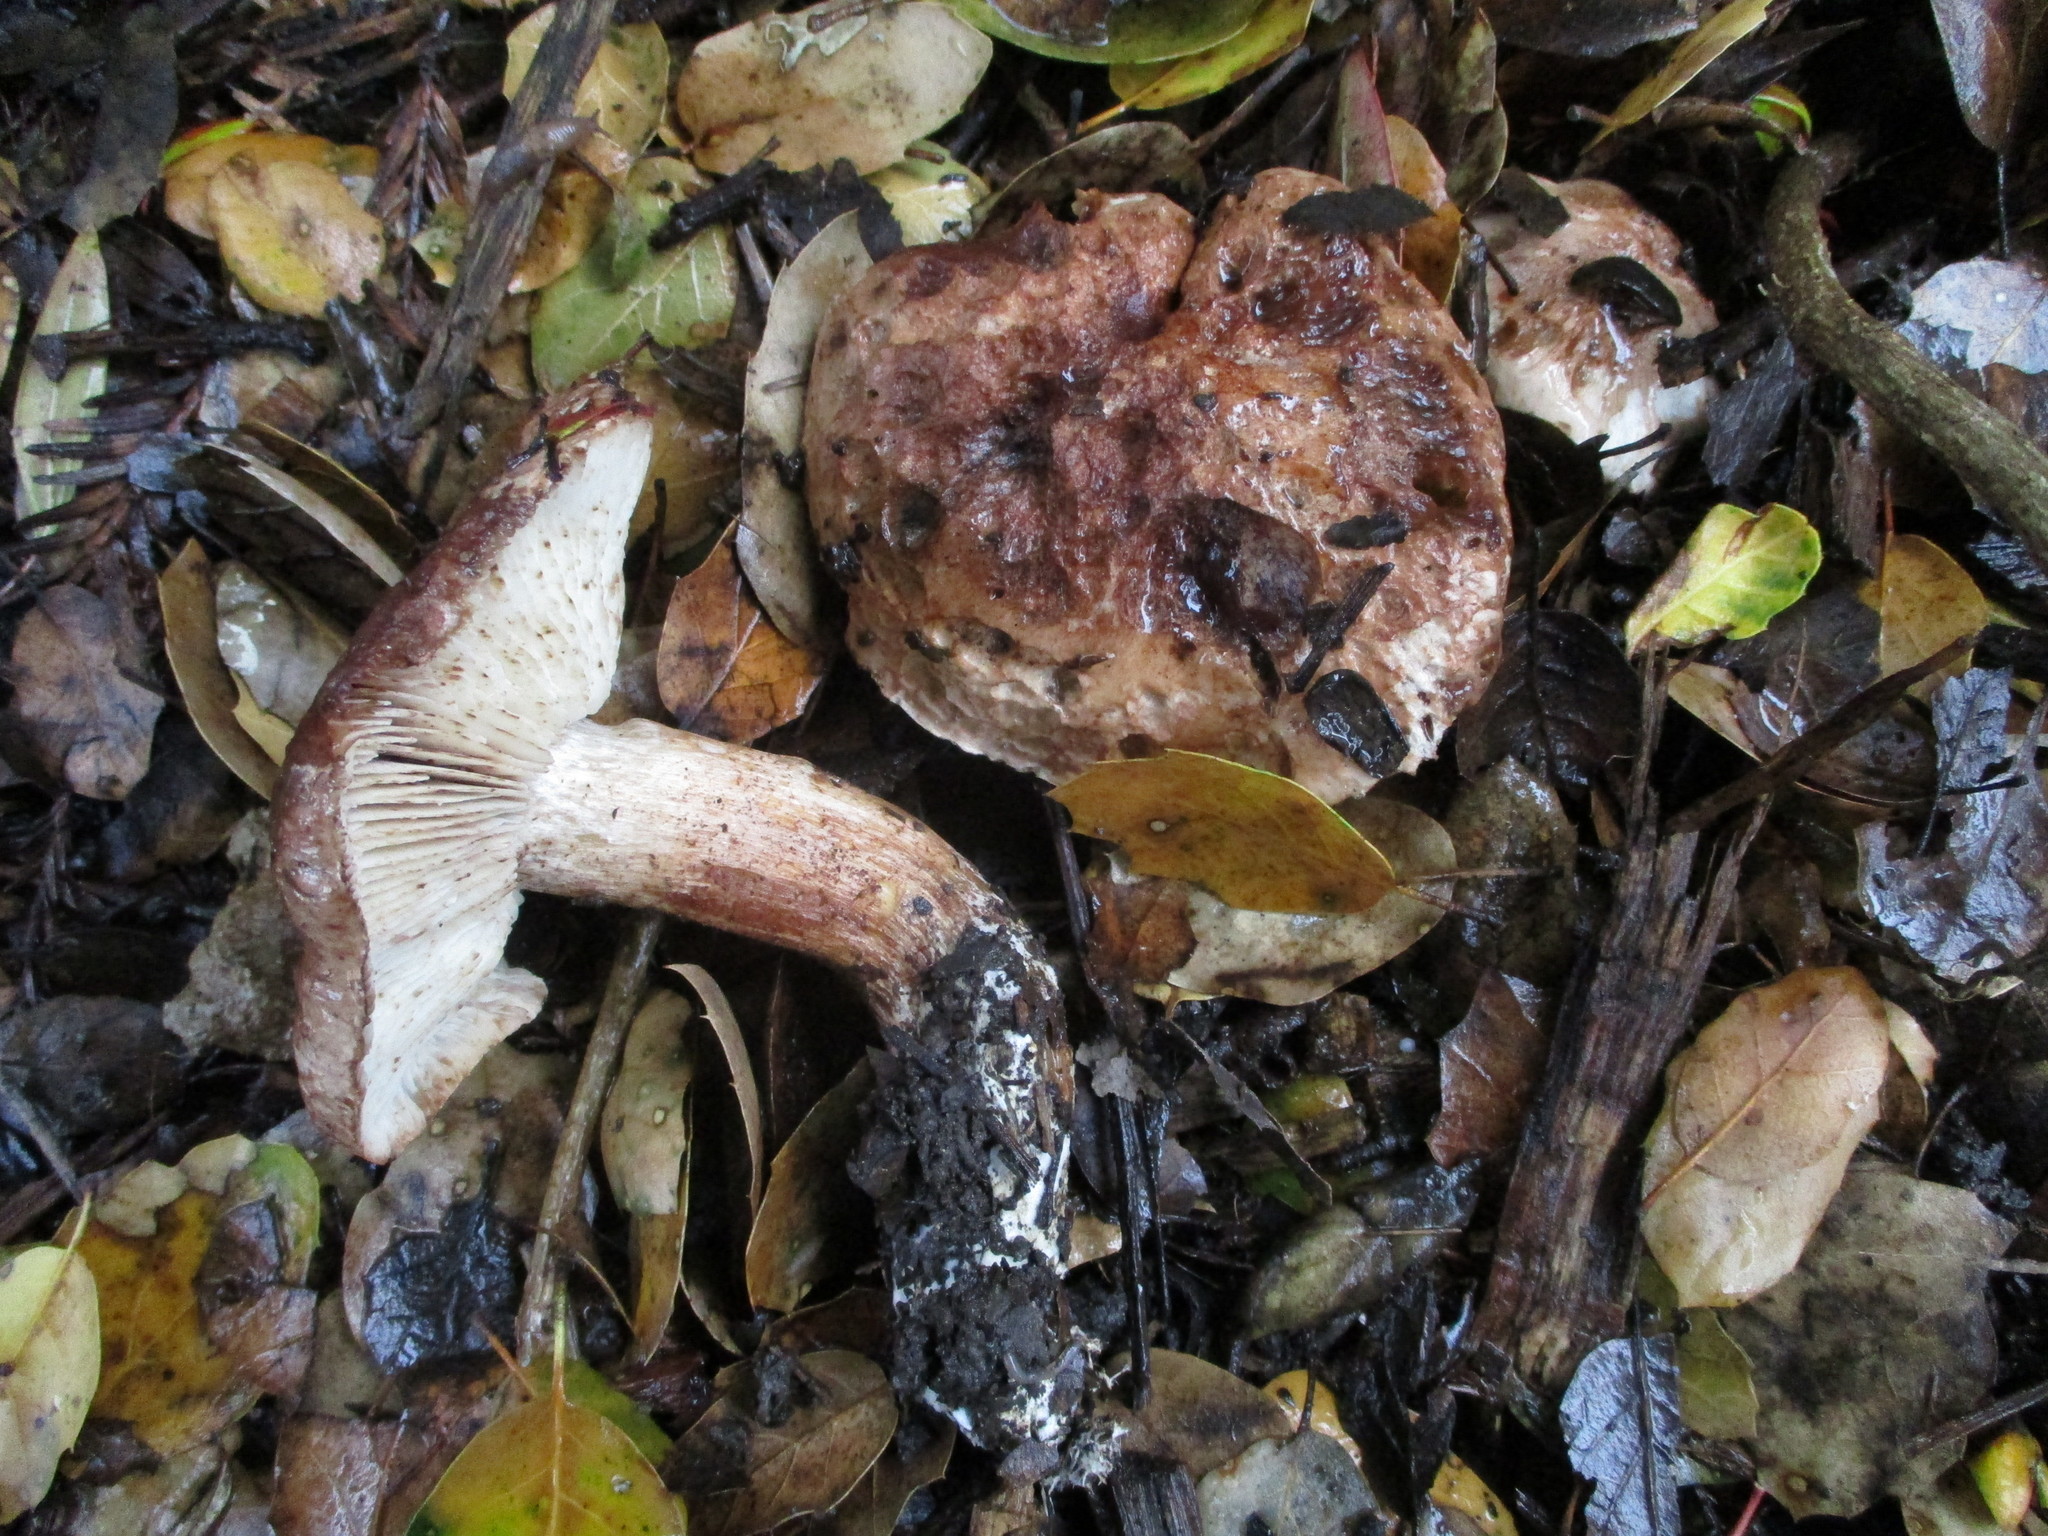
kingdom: Fungi
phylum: Basidiomycota
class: Agaricomycetes
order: Agaricales
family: Tricholomataceae
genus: Melanoleuca
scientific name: Melanoleuca dryophila
